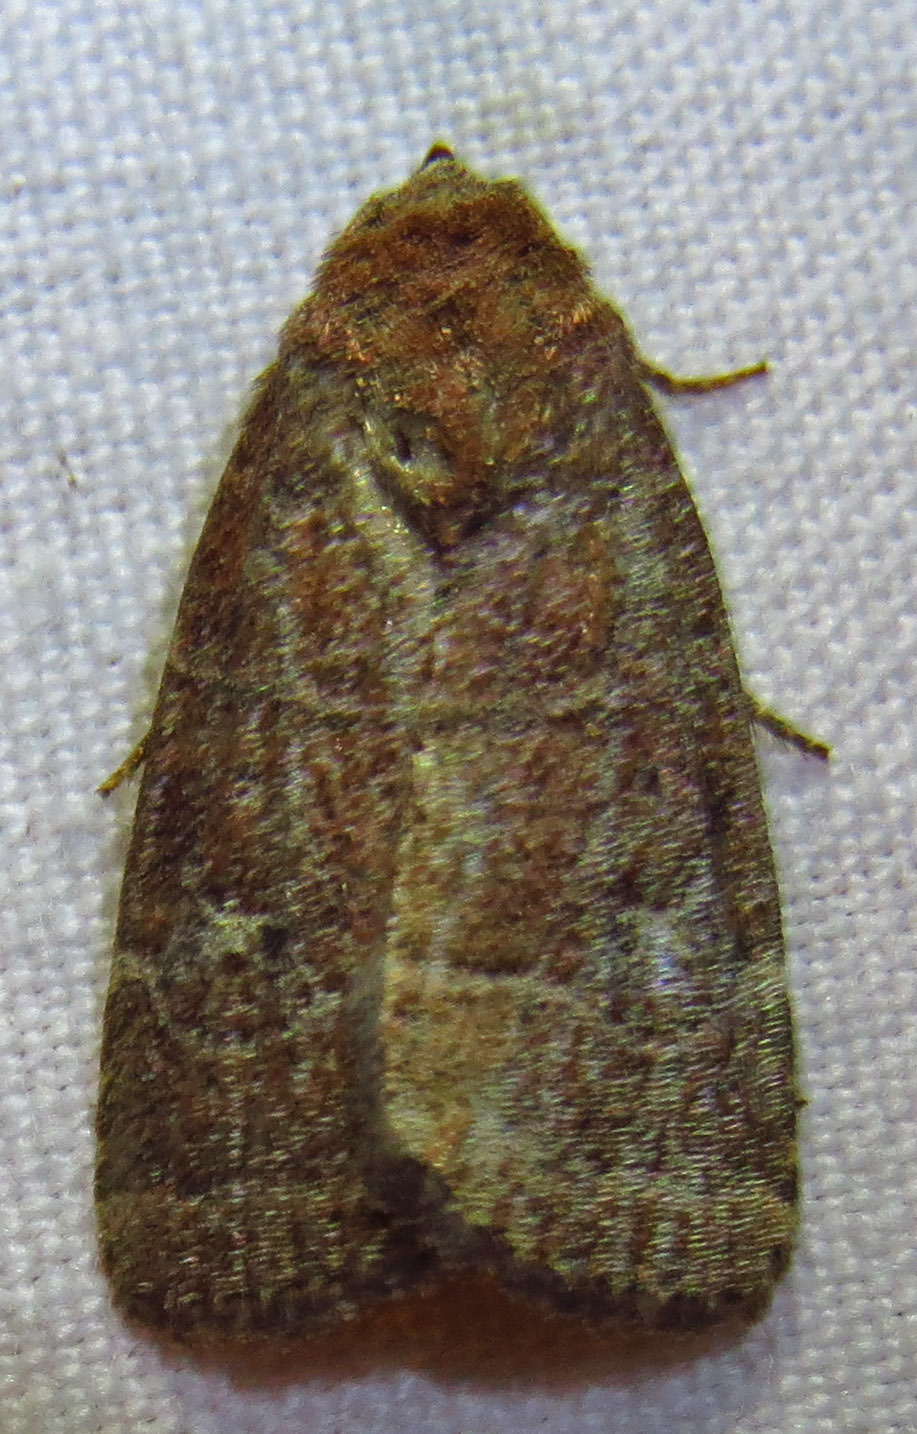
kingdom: Animalia
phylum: Arthropoda
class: Insecta
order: Lepidoptera
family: Noctuidae
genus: Elaphria
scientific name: Elaphria grata
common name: Grateful midget moth
